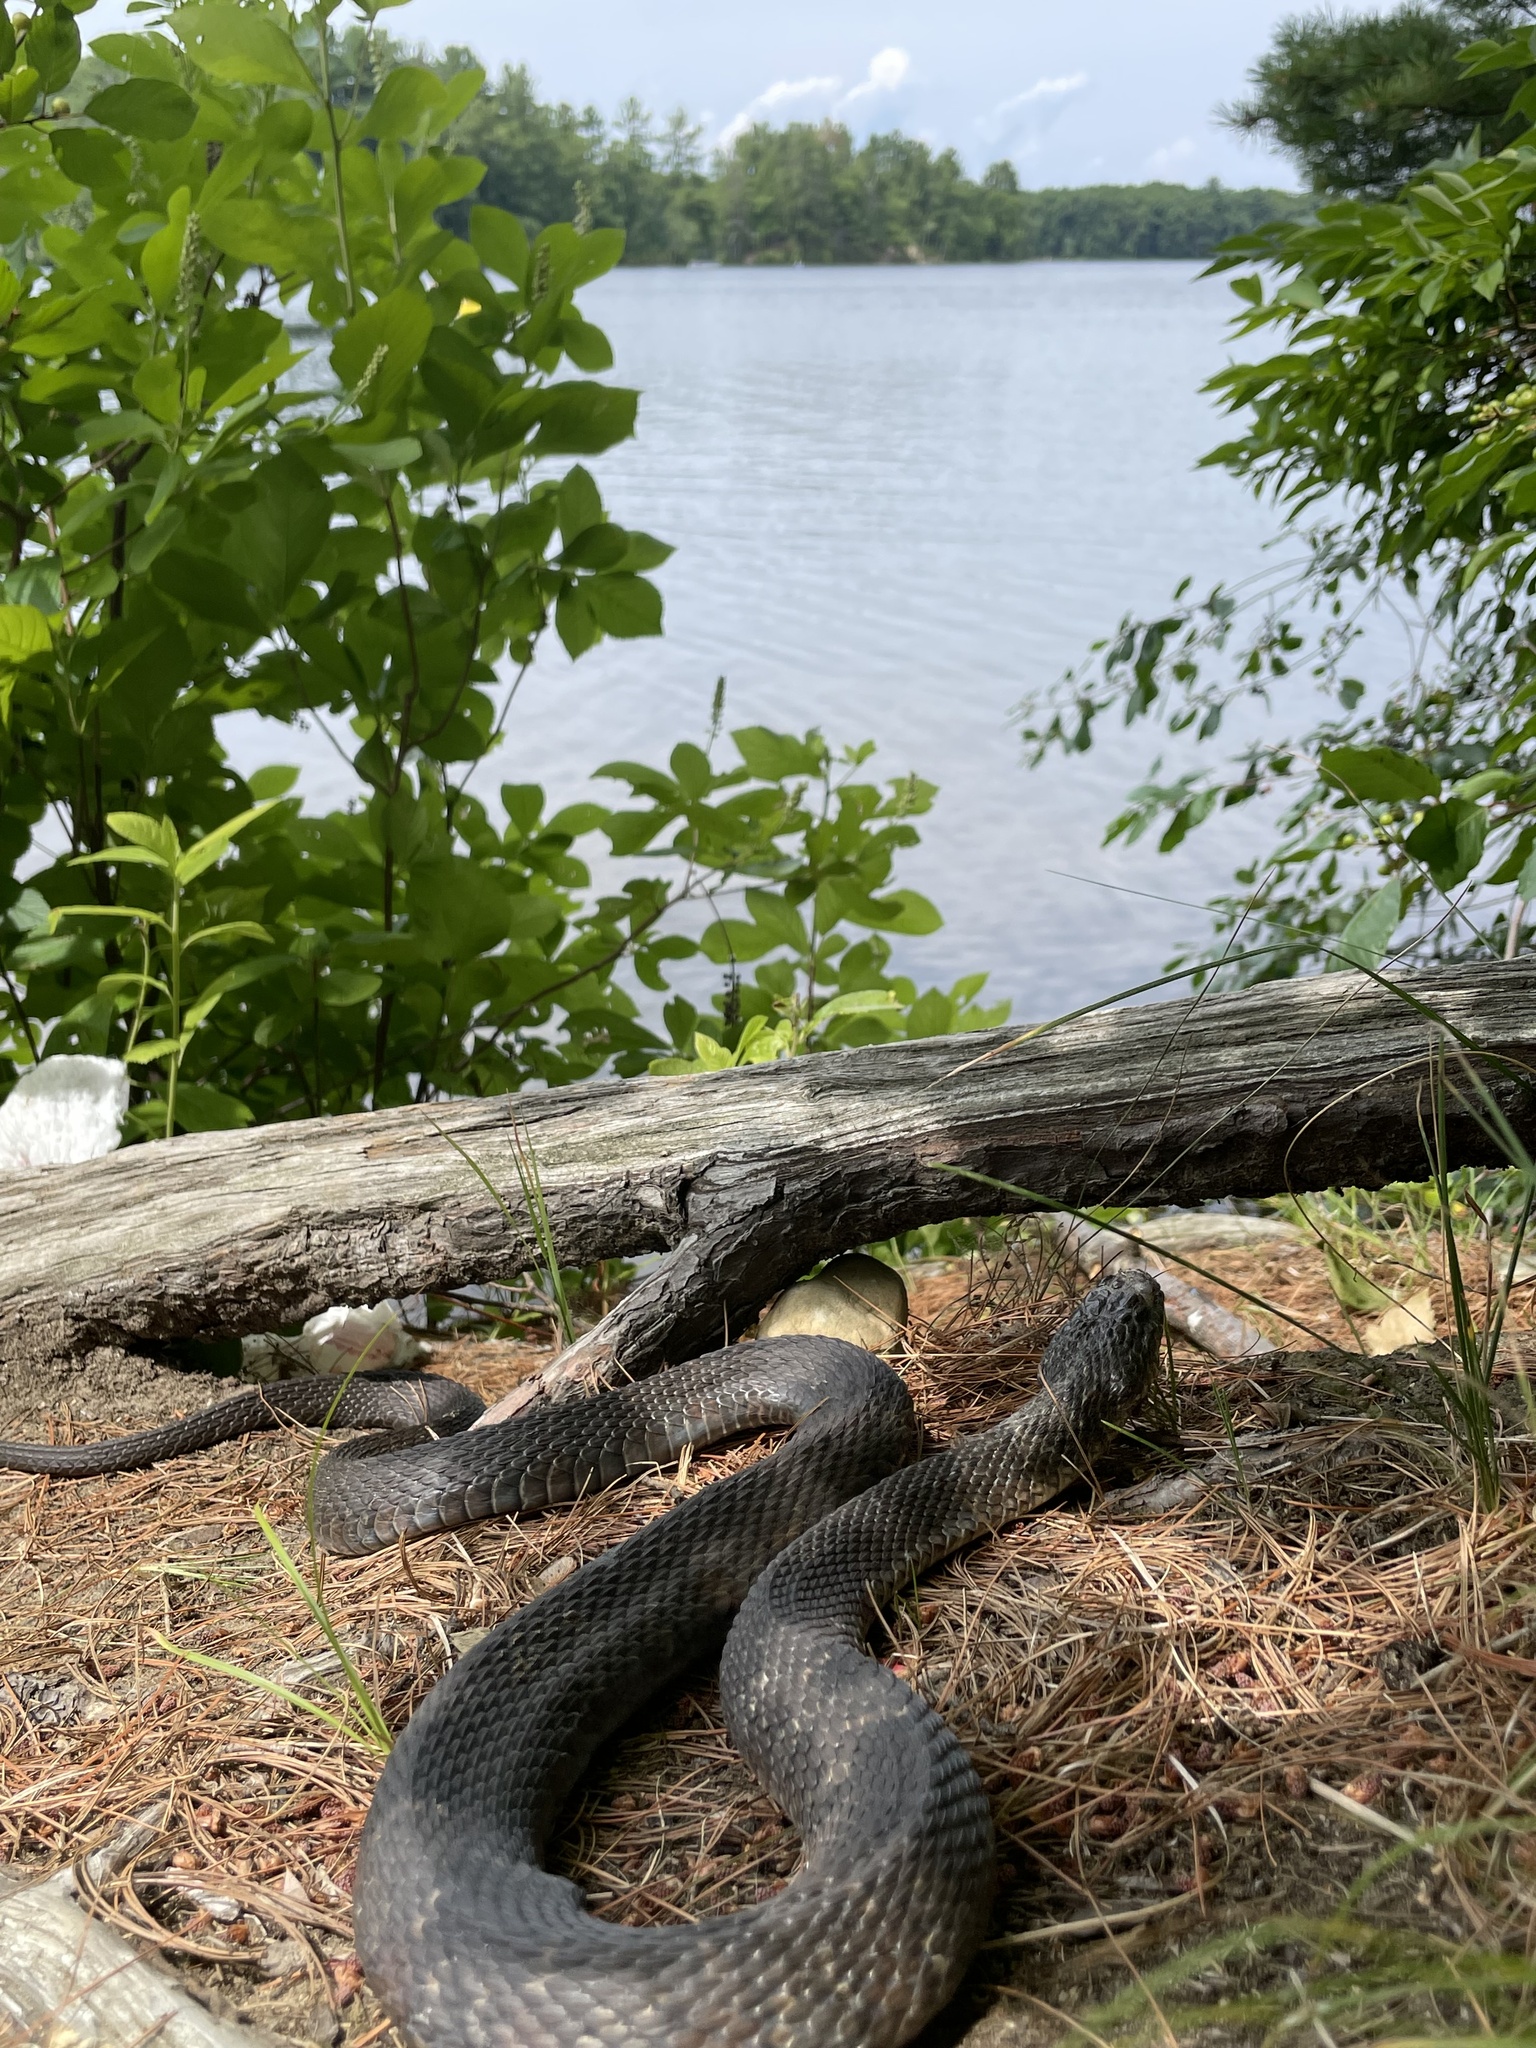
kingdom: Animalia
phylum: Chordata
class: Squamata
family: Colubridae
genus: Nerodia
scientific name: Nerodia sipedon
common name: Northern water snake
